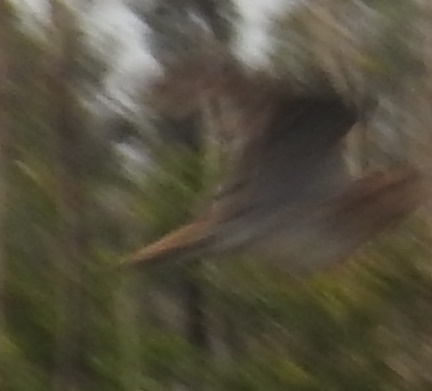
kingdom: Animalia
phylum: Chordata
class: Aves
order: Pelecaniformes
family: Ardeidae
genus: Botaurus
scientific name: Botaurus lentiginosus
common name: American bittern
